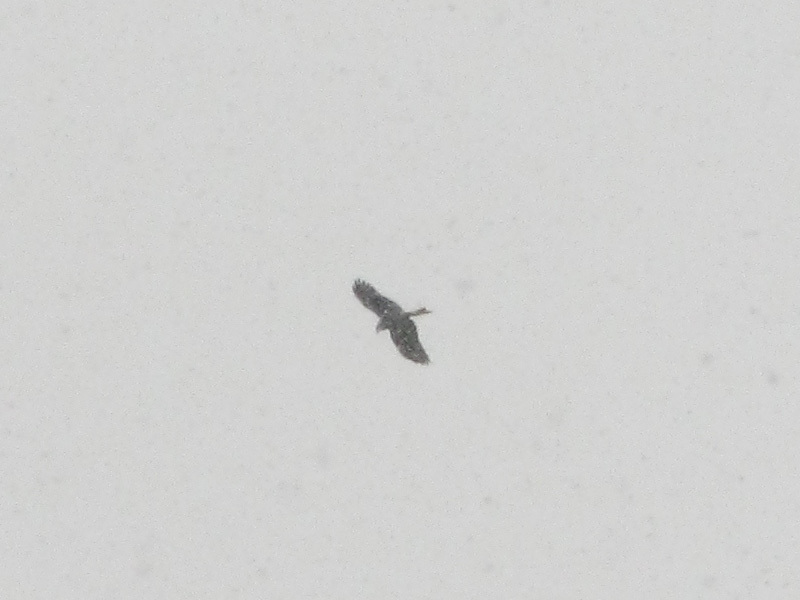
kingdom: Animalia
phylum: Chordata
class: Aves
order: Accipitriformes
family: Accipitridae
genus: Milvus
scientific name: Milvus migrans
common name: Black kite
